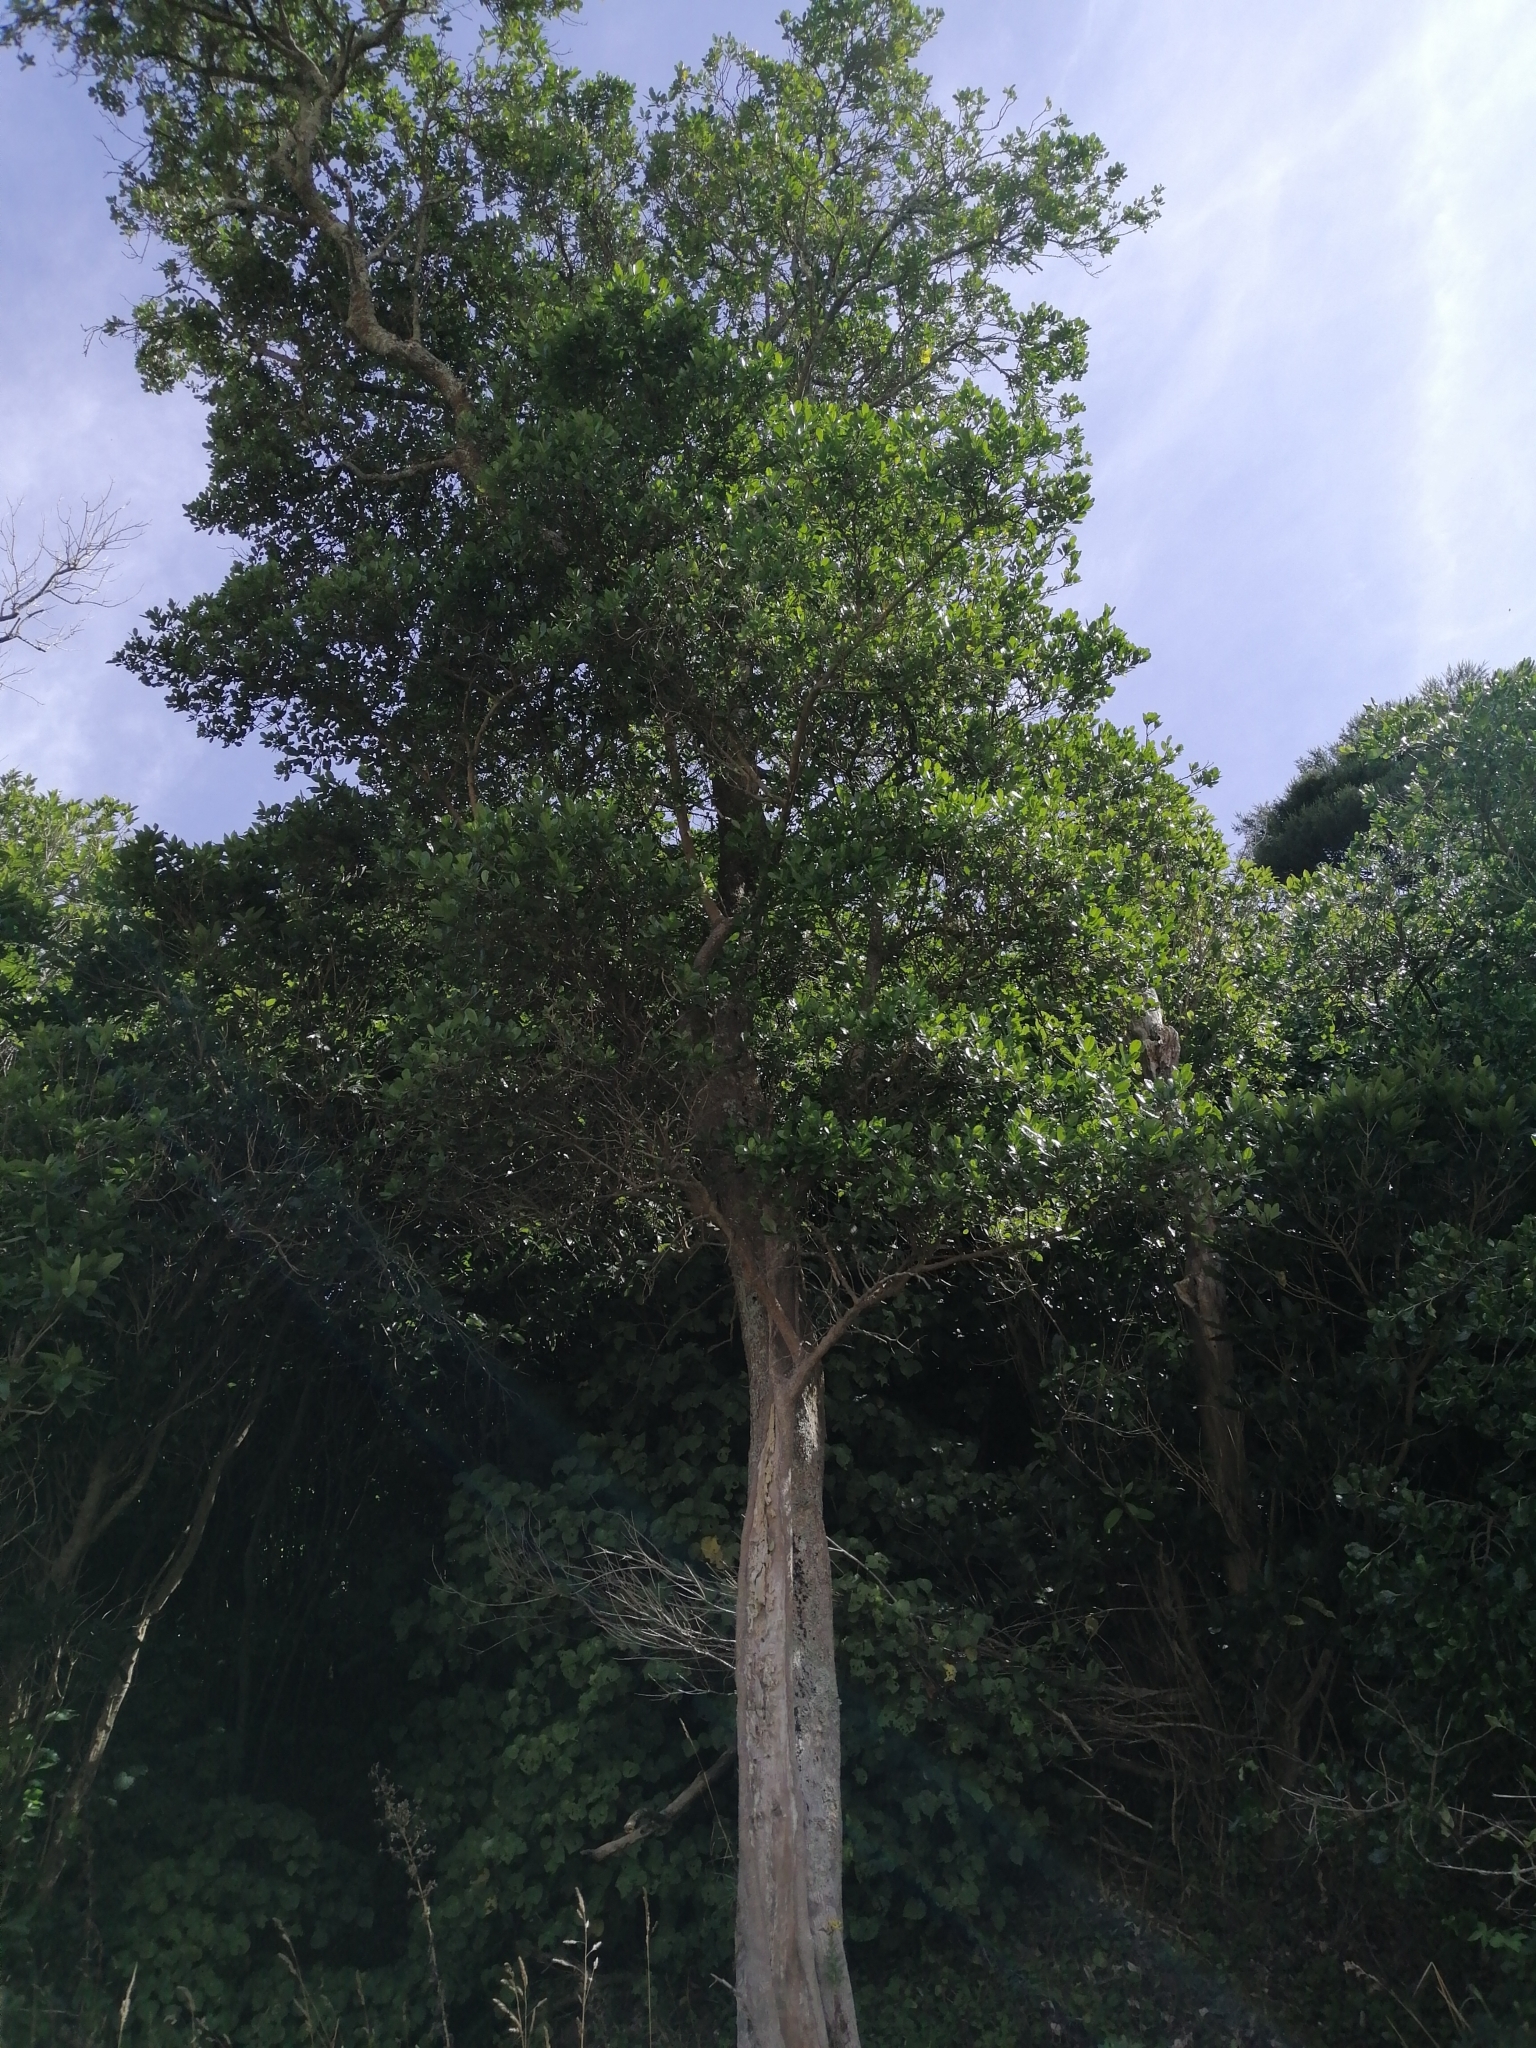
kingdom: Plantae
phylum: Tracheophyta
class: Magnoliopsida
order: Apiales
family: Pennantiaceae
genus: Pennantia
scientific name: Pennantia corymbosa
